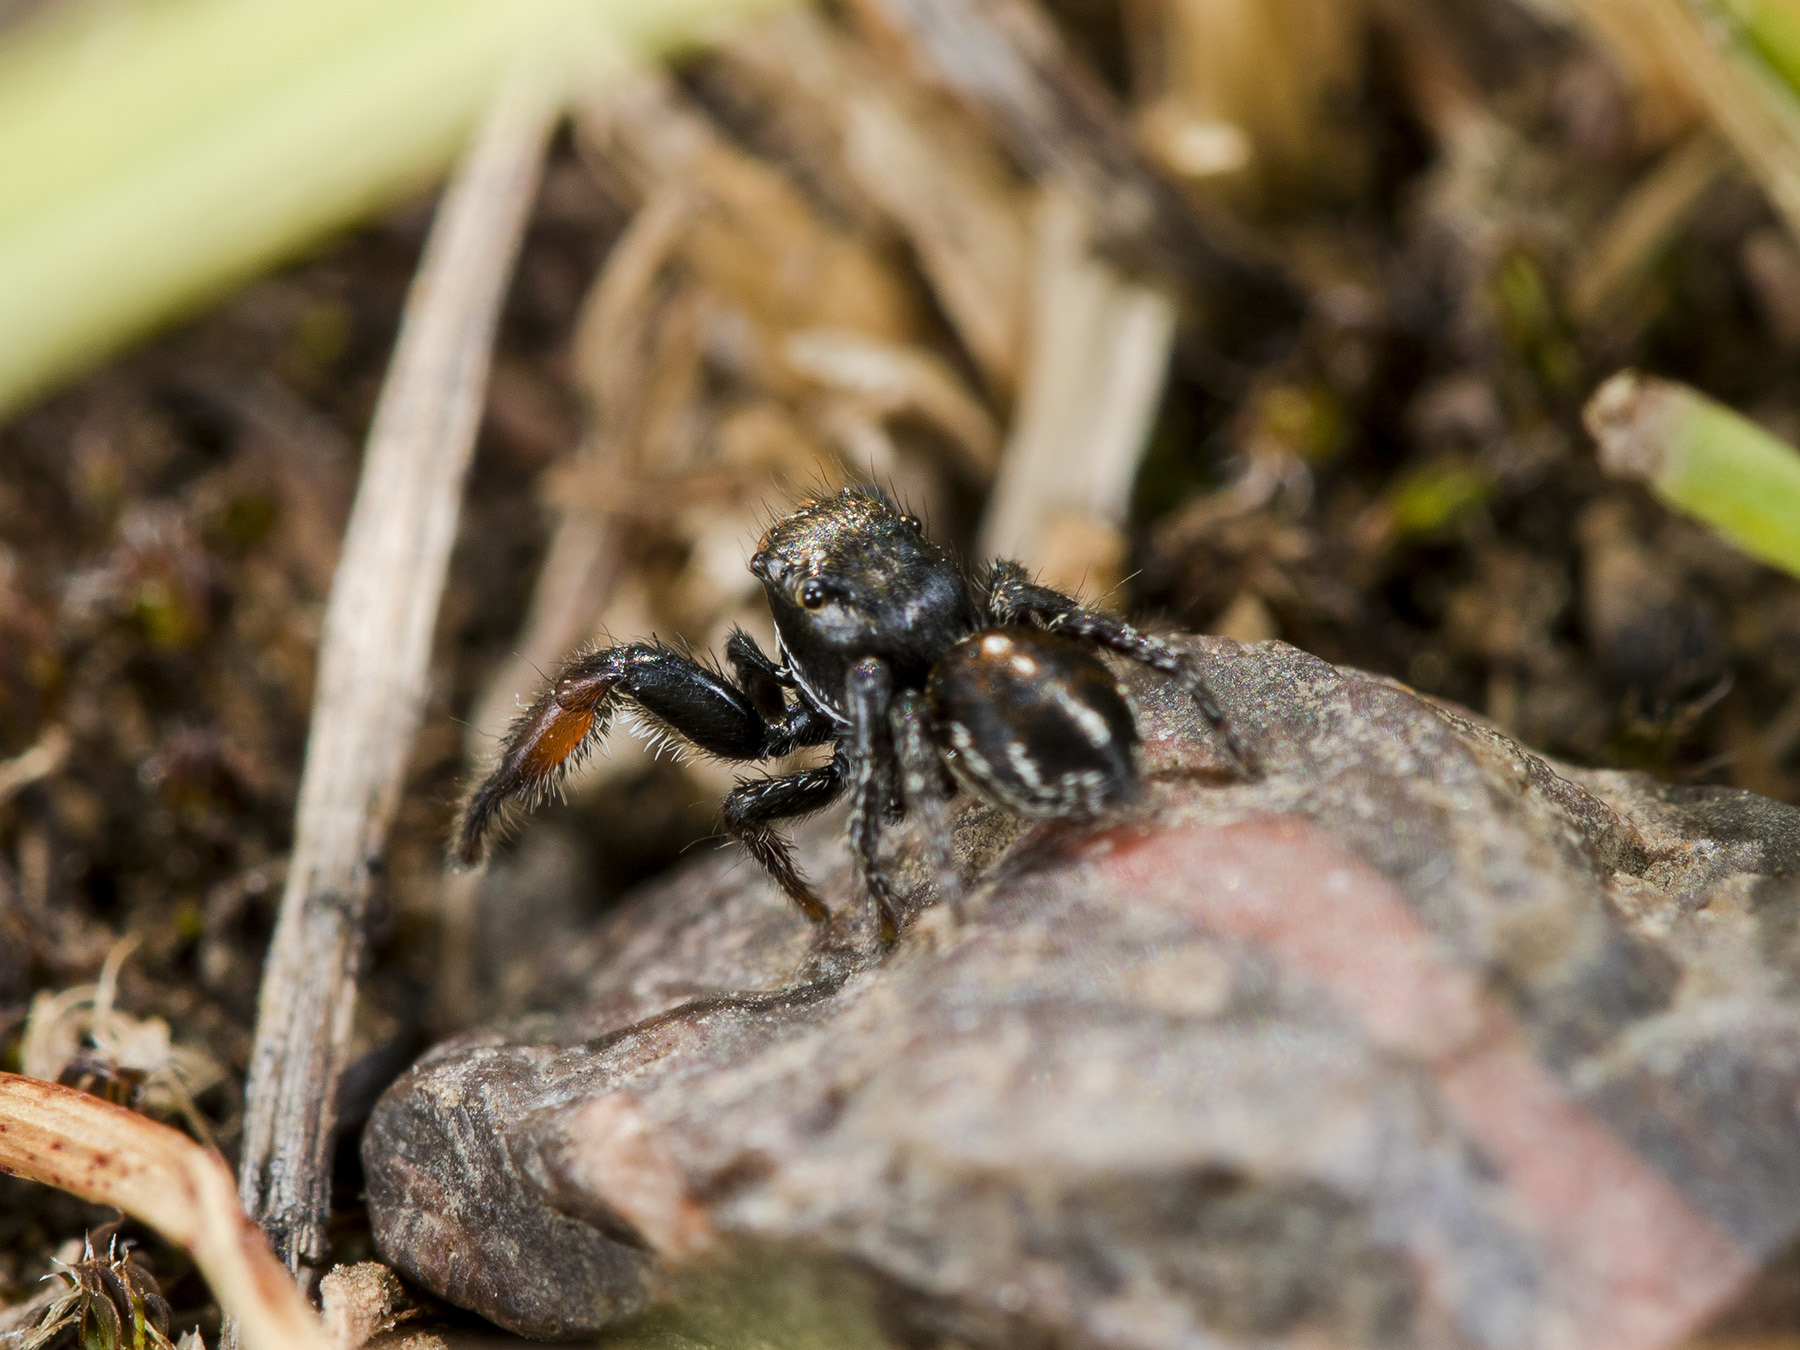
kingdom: Animalia
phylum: Arthropoda
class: Arachnida
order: Araneae
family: Salticidae
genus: Pellenes
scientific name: Pellenes allegrii
